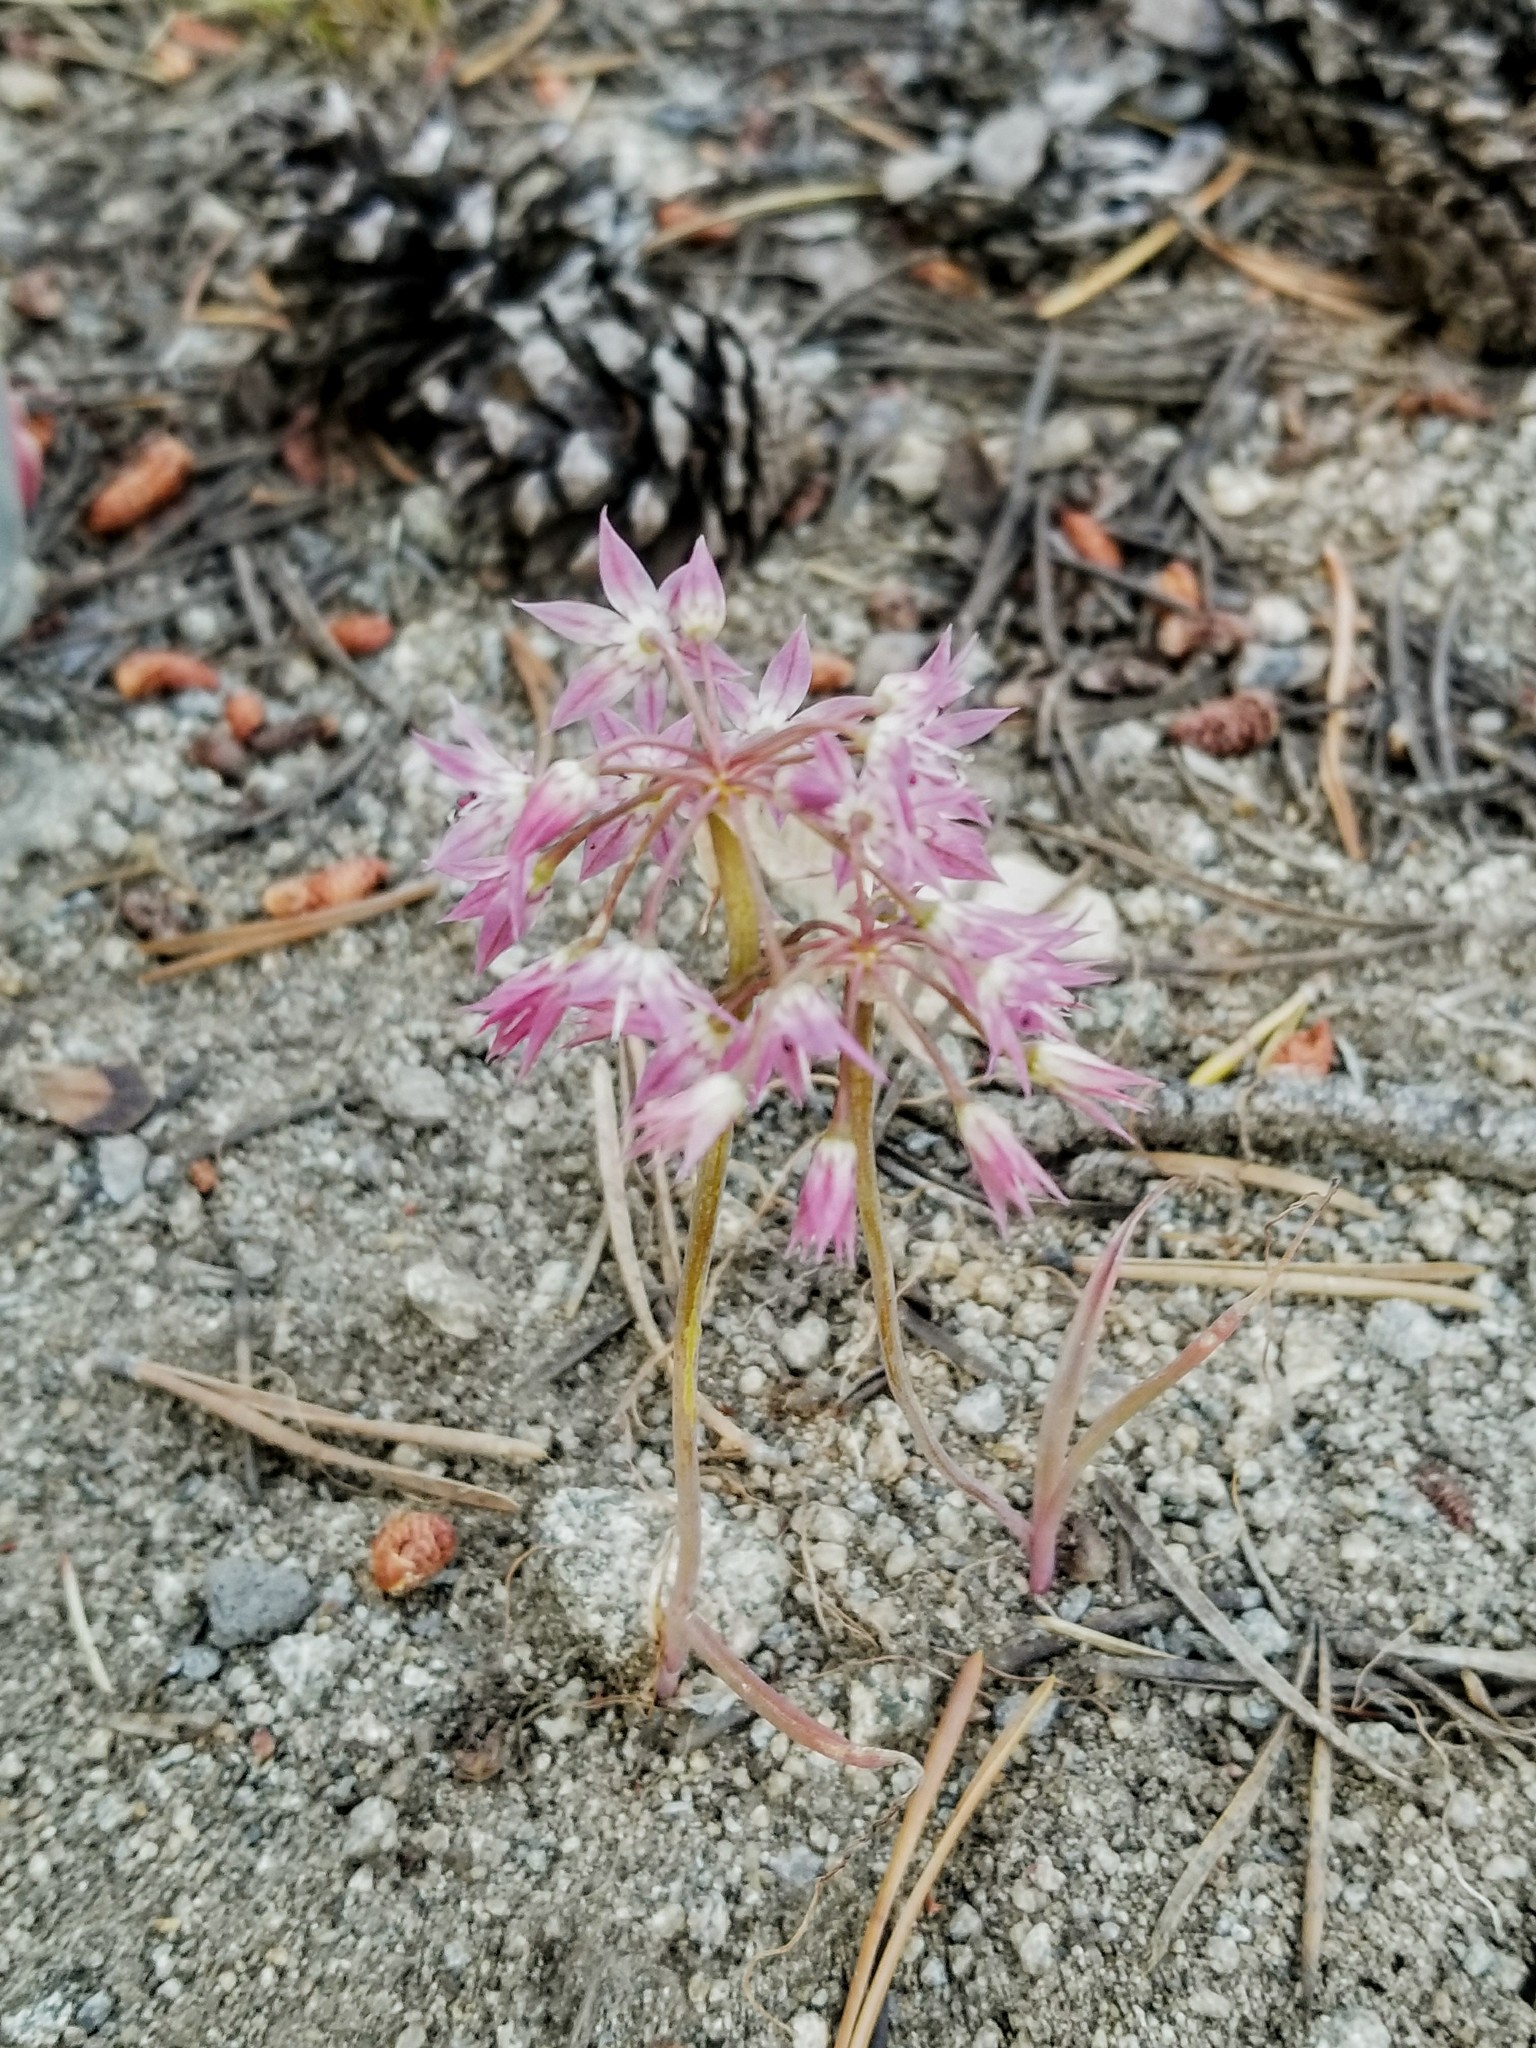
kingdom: Plantae
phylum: Tracheophyta
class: Liliopsida
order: Asparagales
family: Amaryllidaceae
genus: Allium
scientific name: Allium campanulatum
